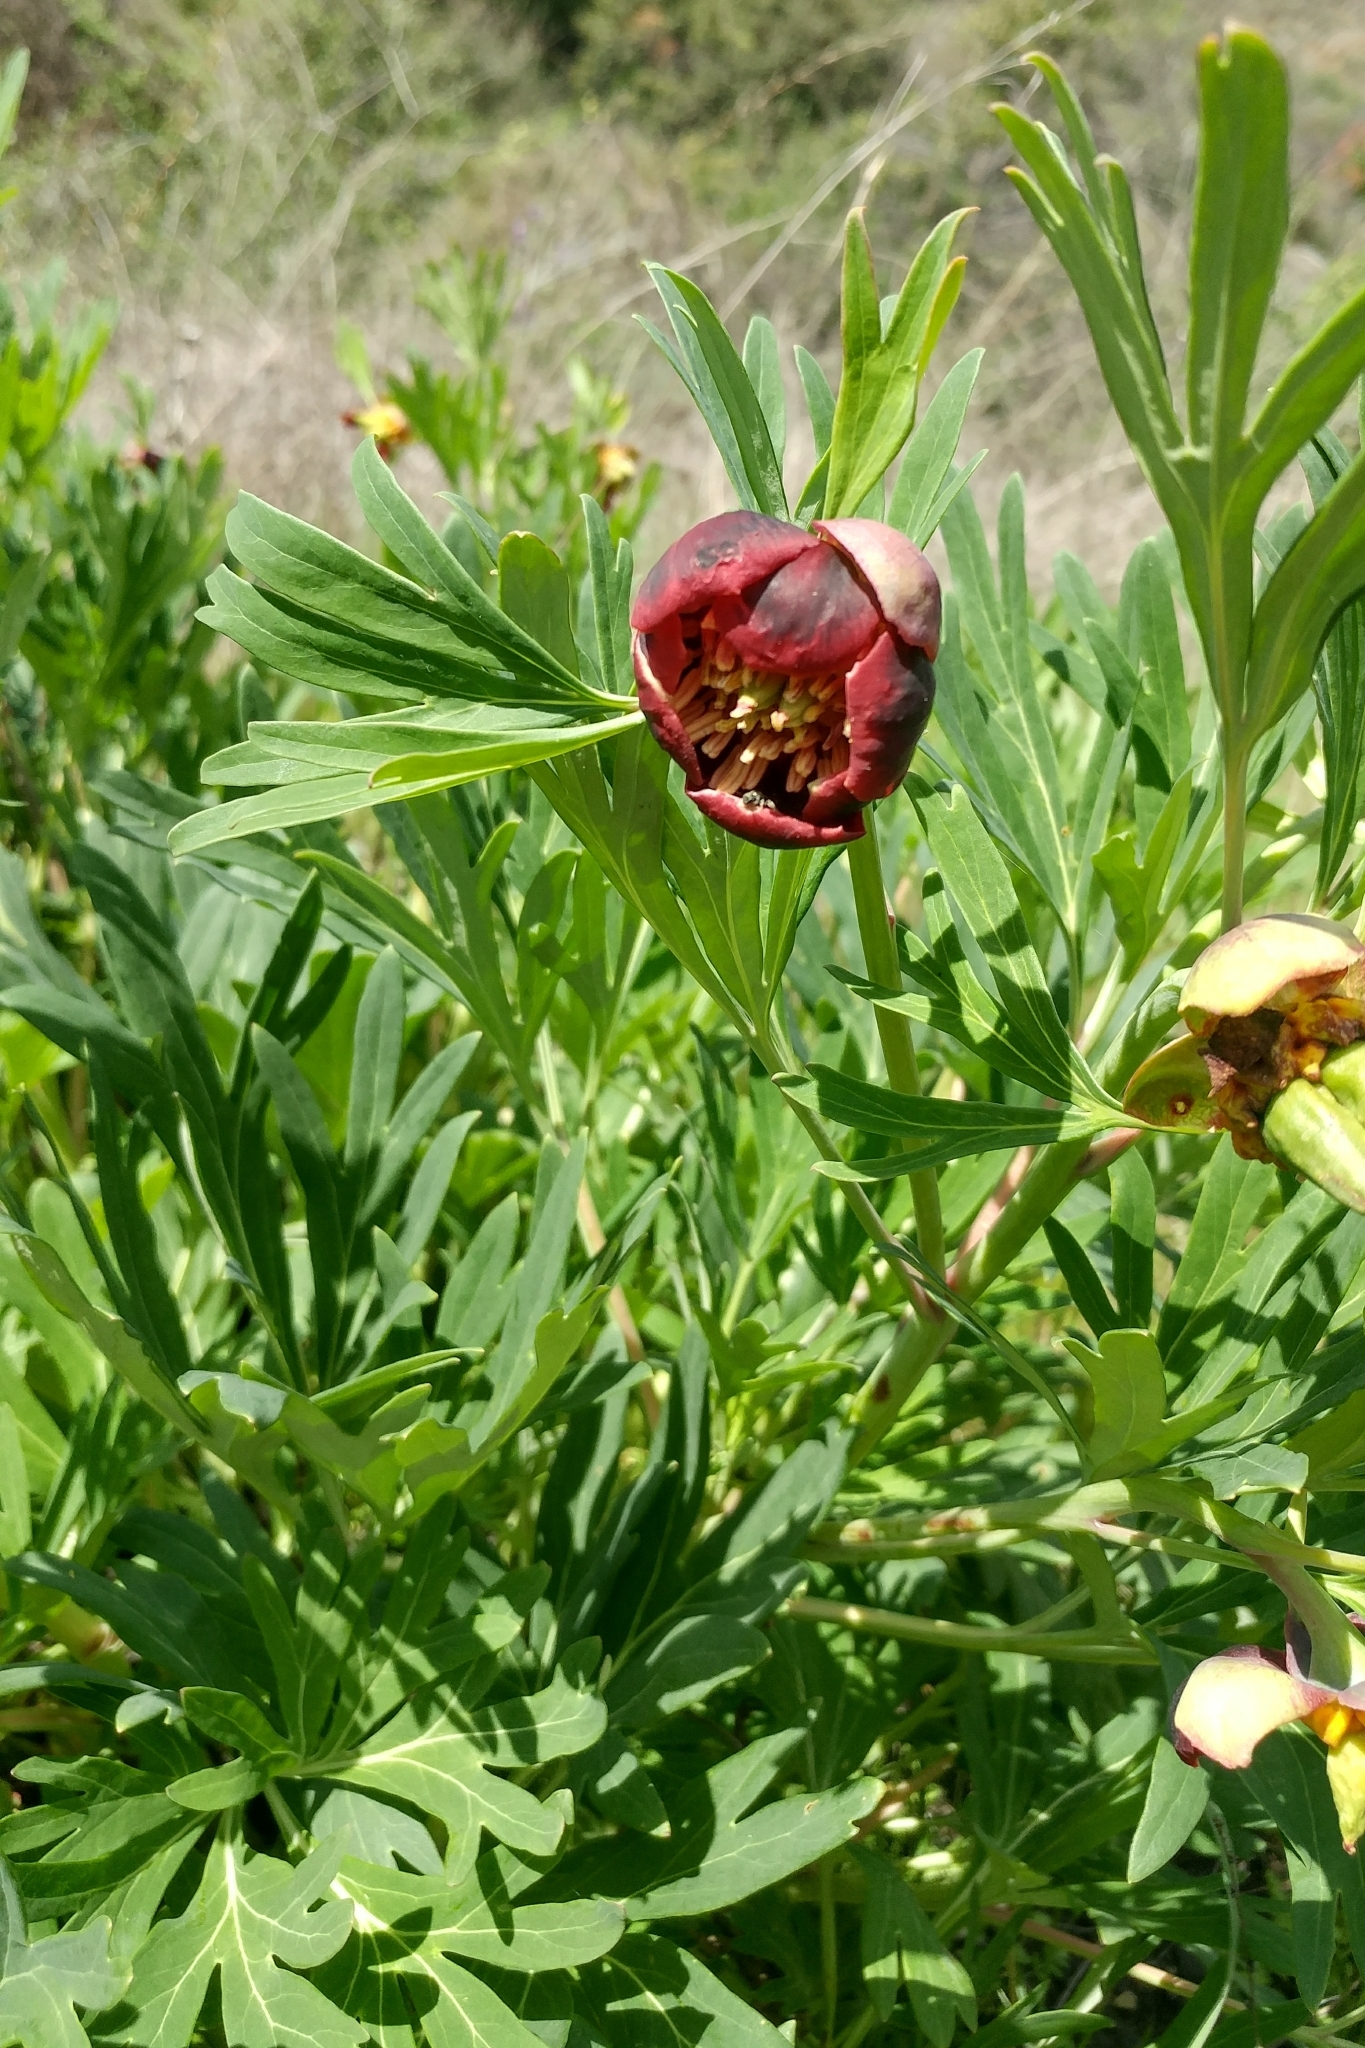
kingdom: Plantae
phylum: Tracheophyta
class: Magnoliopsida
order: Saxifragales
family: Paeoniaceae
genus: Paeonia
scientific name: Paeonia californica
